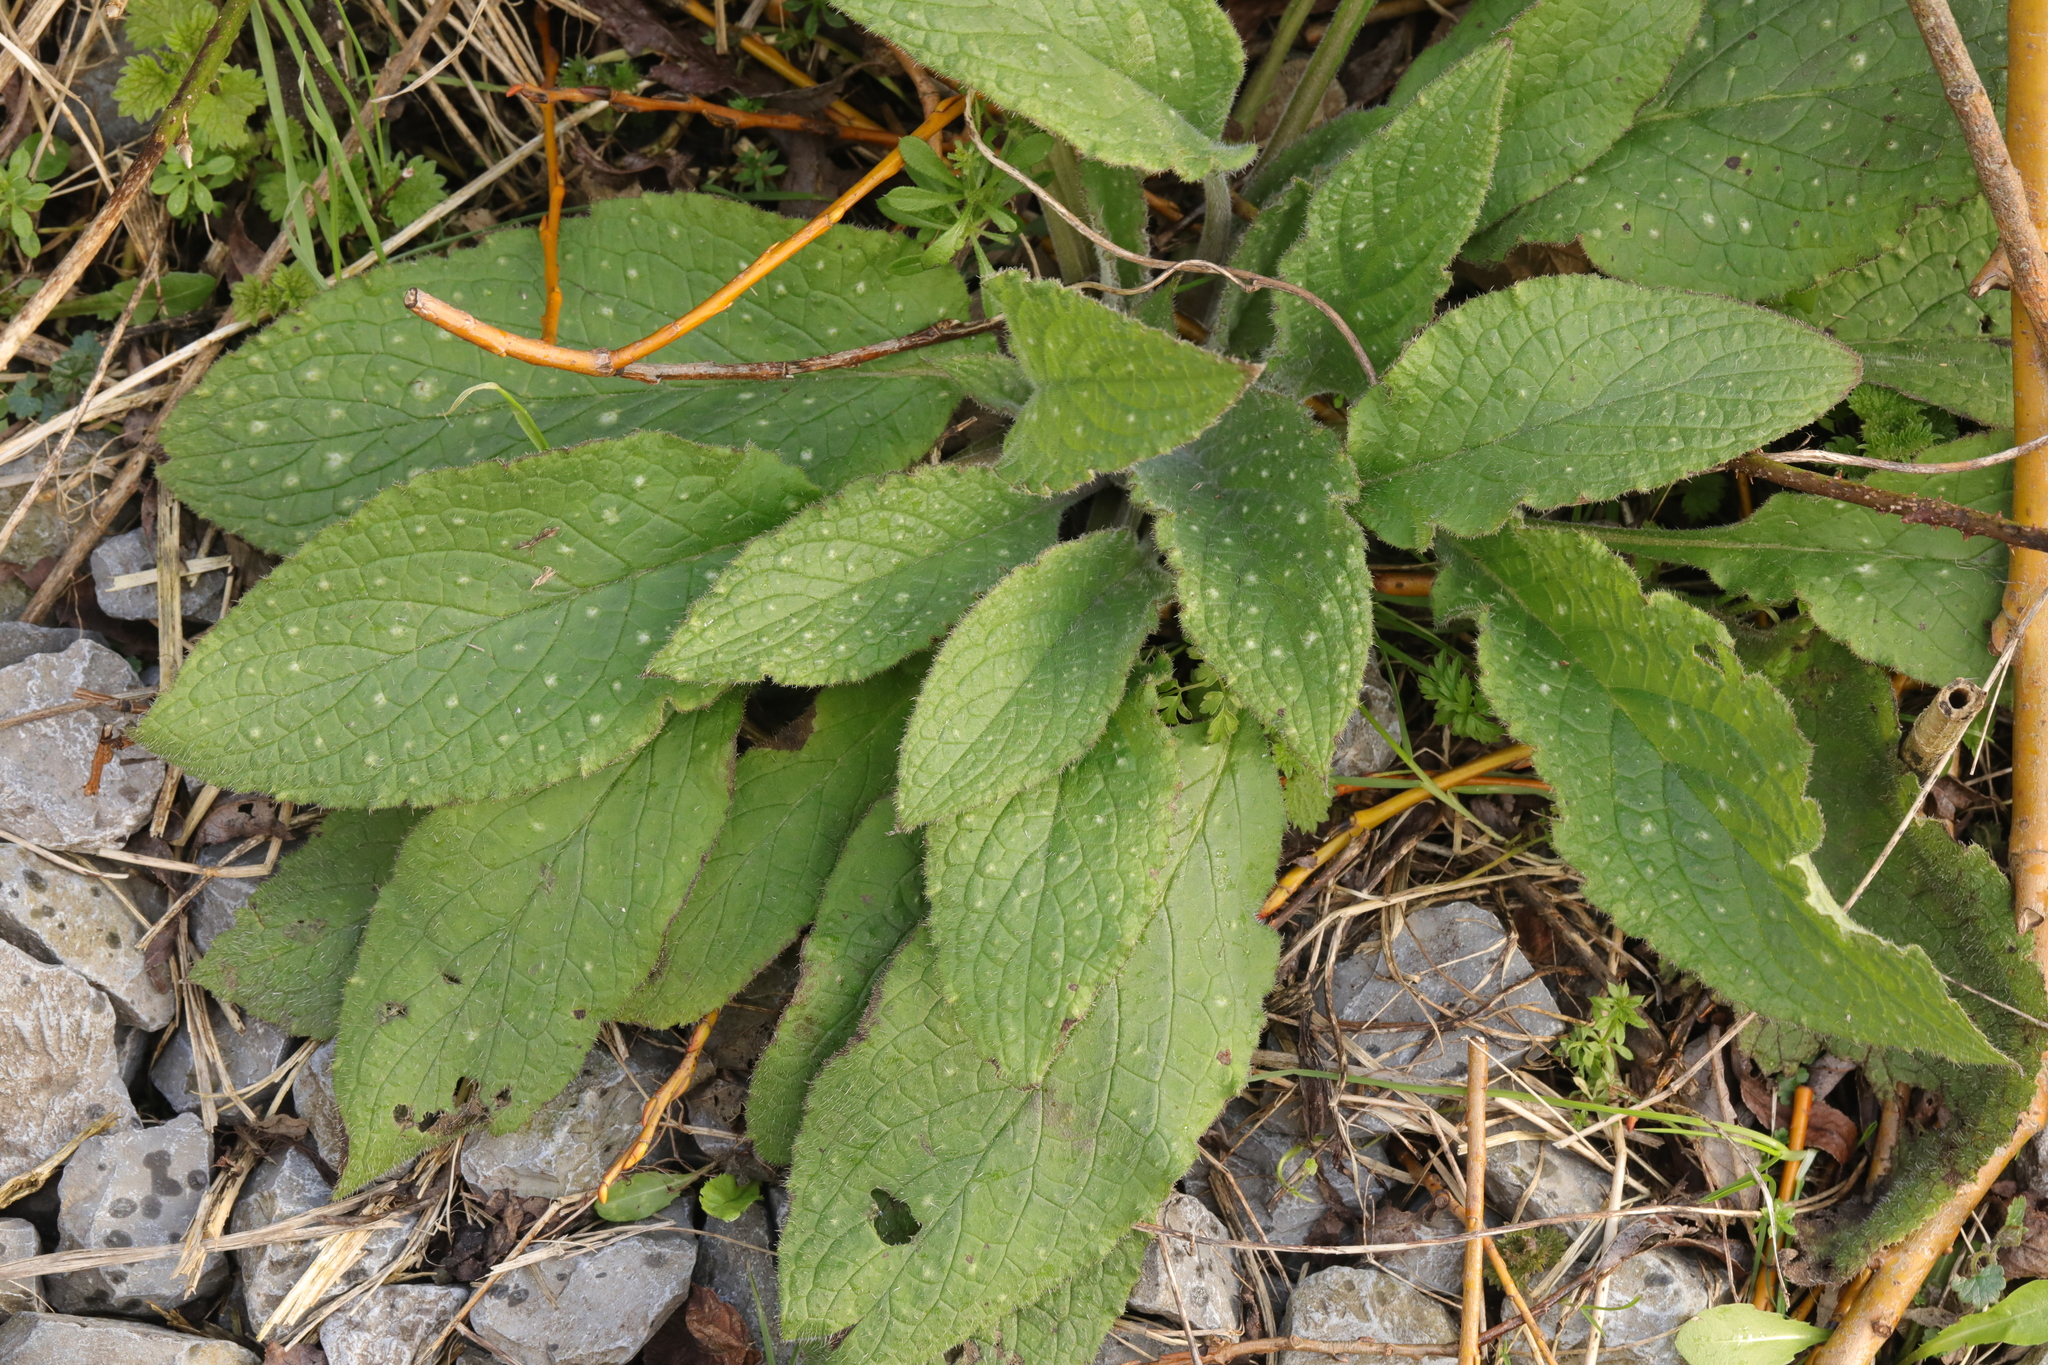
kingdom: Plantae
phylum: Tracheophyta
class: Magnoliopsida
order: Boraginales
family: Boraginaceae
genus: Pentaglottis
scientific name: Pentaglottis sempervirens
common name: Green alkanet
